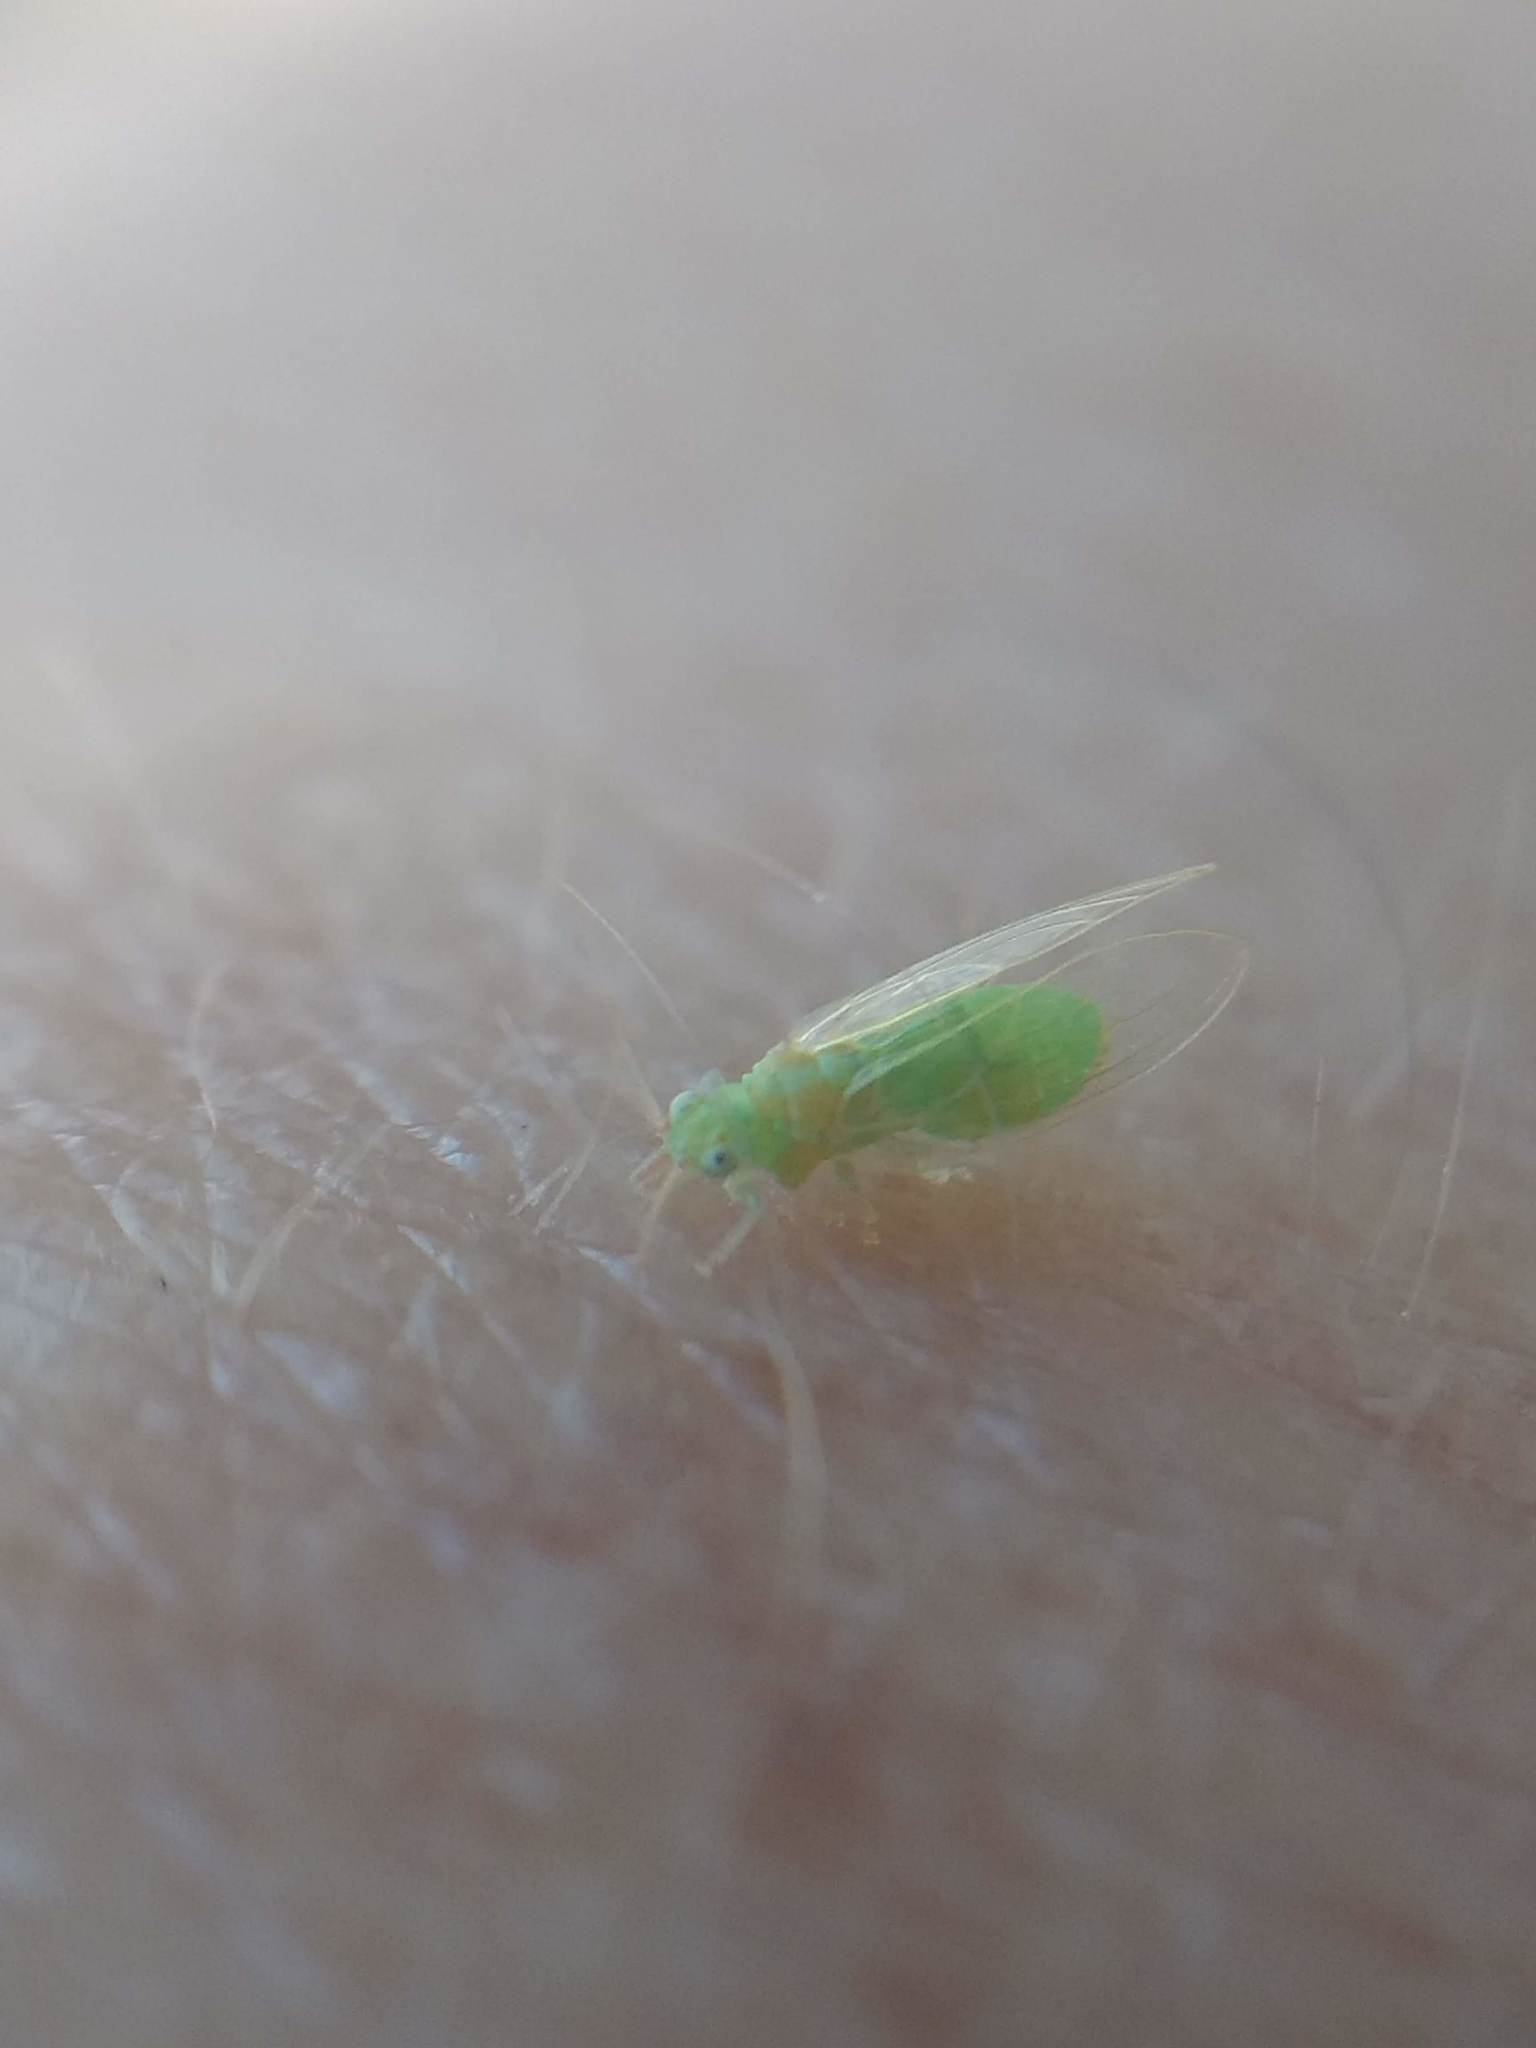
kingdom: Animalia
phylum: Arthropoda
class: Insecta
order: Hemiptera
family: Aphalaridae
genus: Glycaspis
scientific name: Glycaspis brimblecombei
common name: Red gum lerp psyllid
